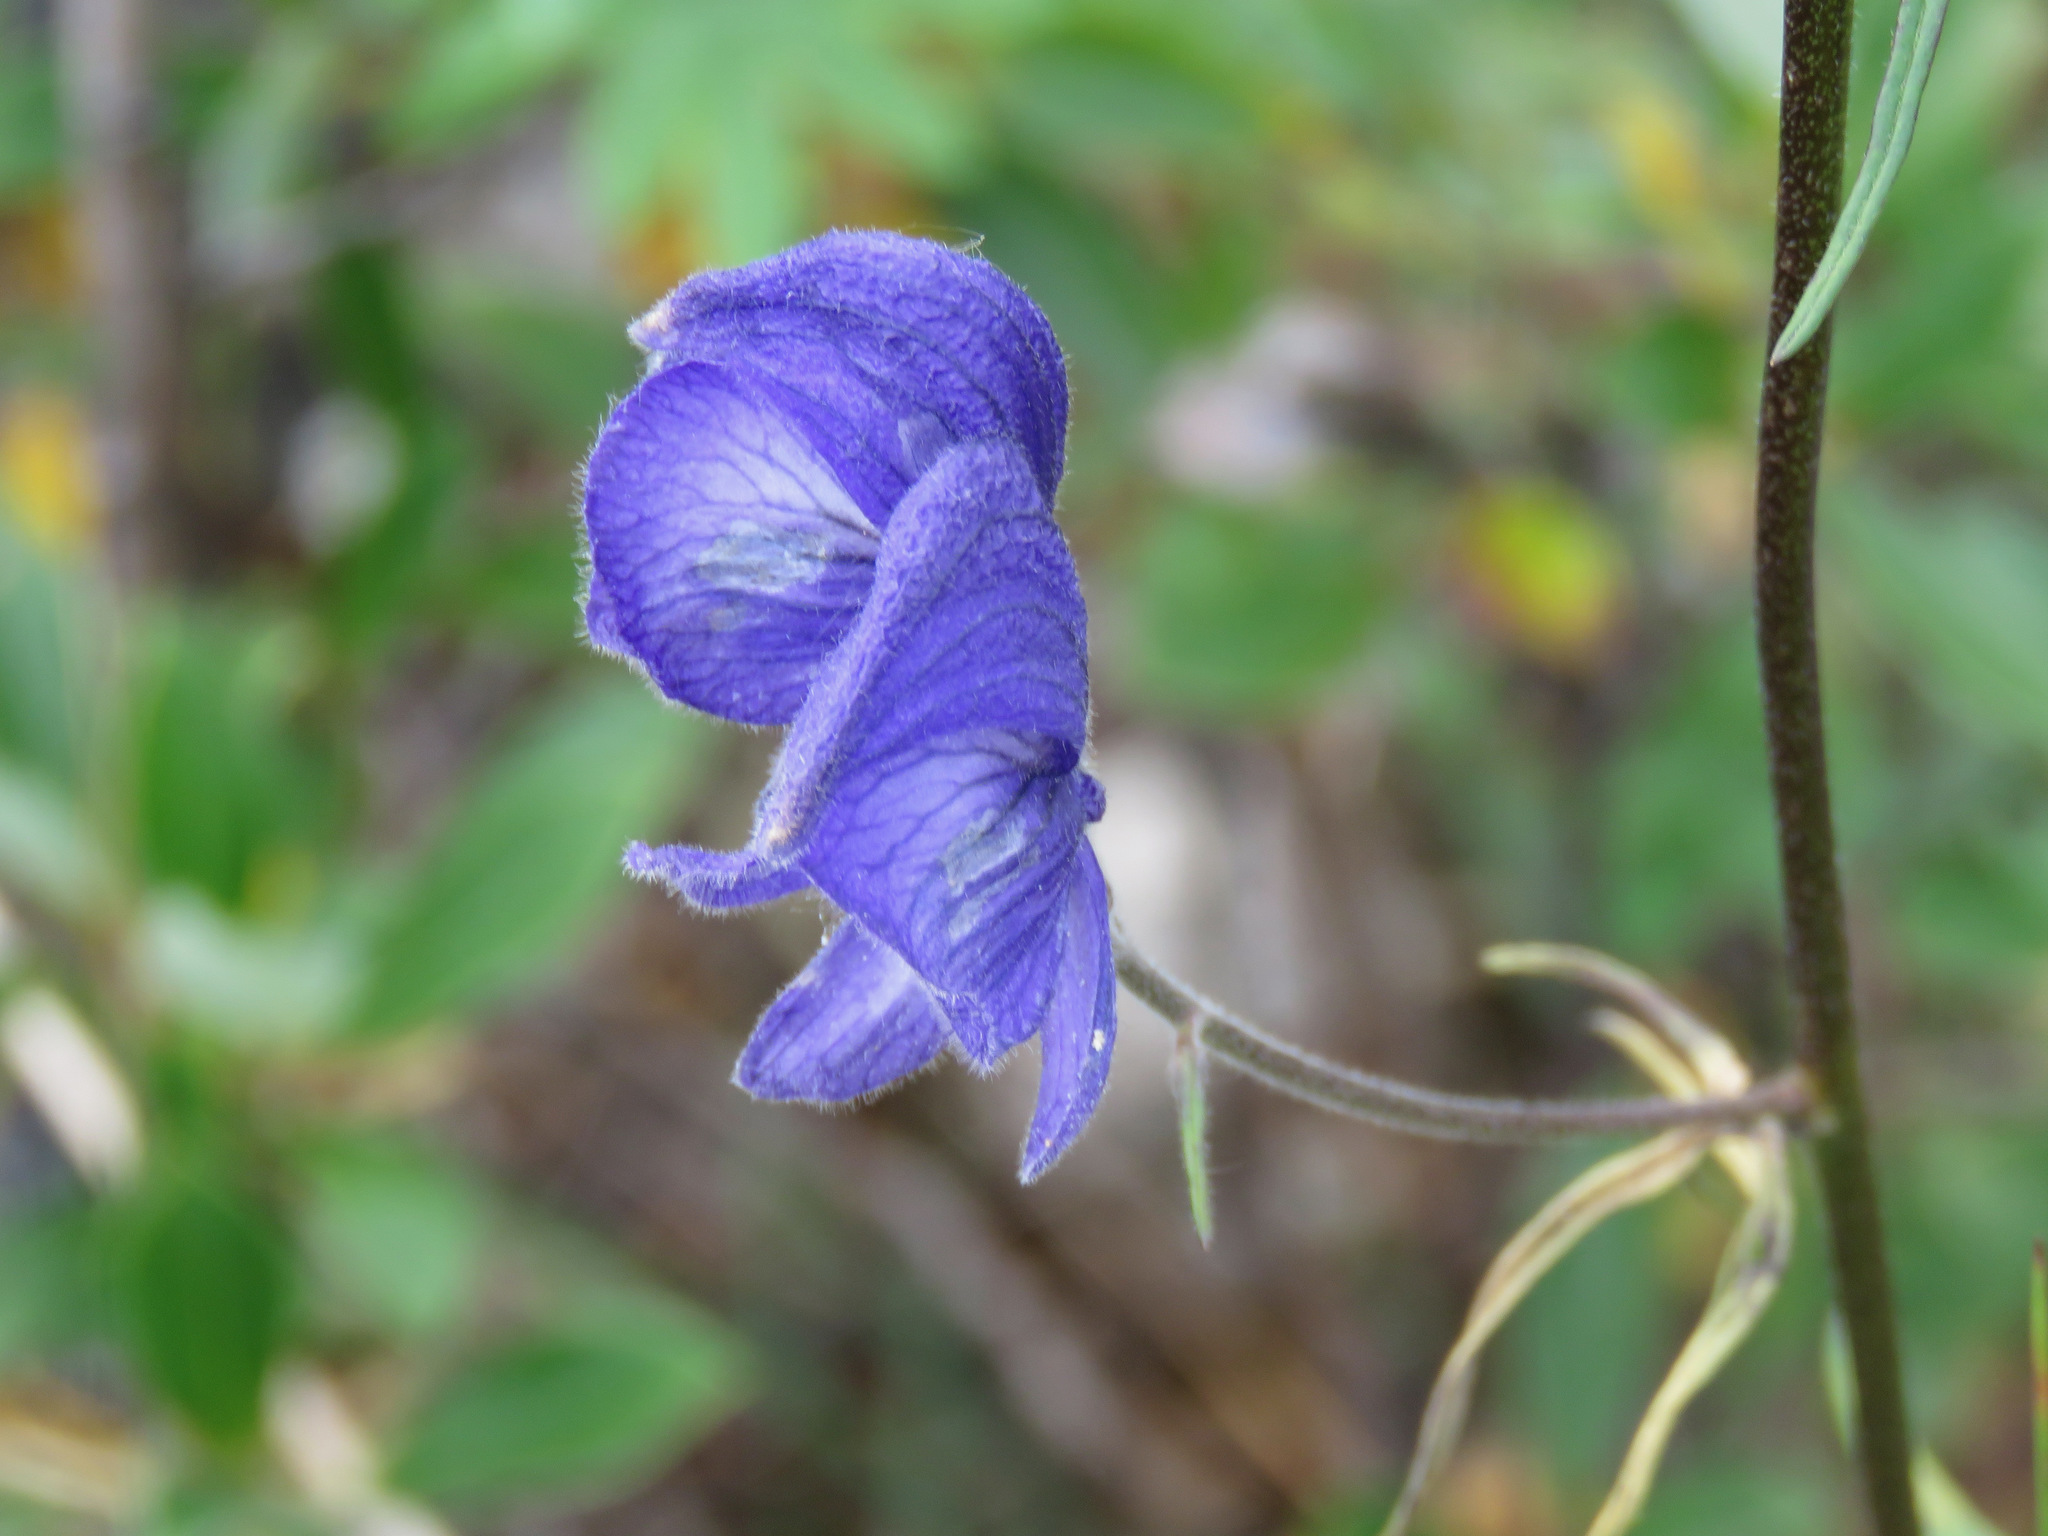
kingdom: Plantae
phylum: Tracheophyta
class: Magnoliopsida
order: Ranunculales
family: Ranunculaceae
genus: Aconitum
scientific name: Aconitum delphiniifolium
